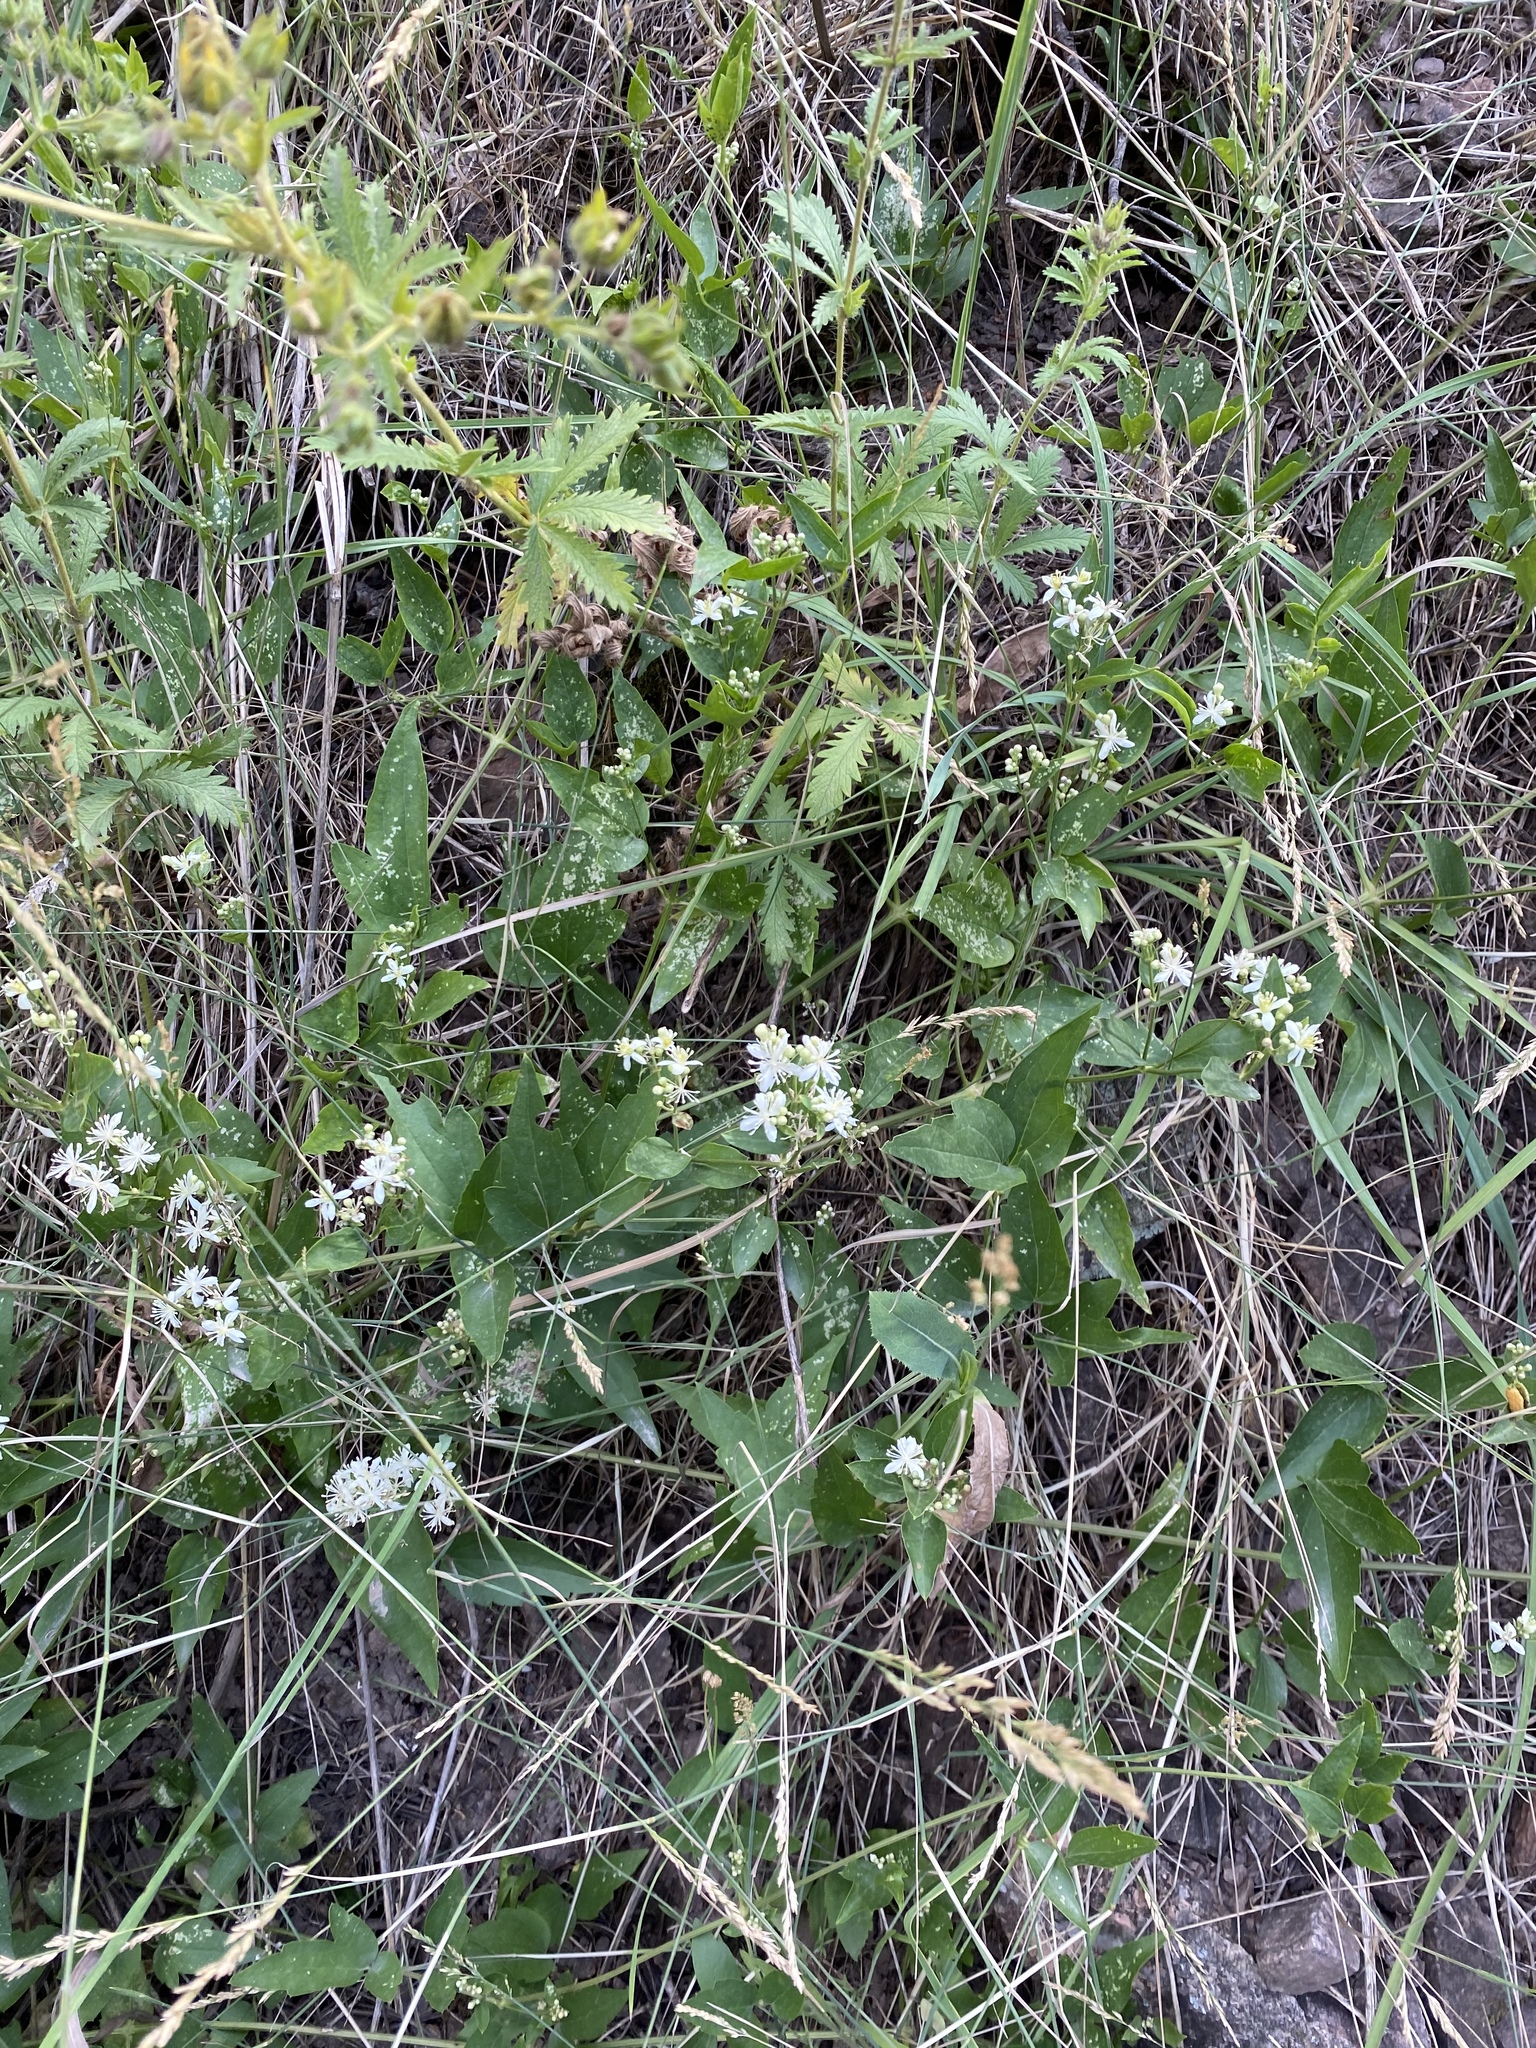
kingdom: Plantae
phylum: Tracheophyta
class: Magnoliopsida
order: Ranunculales
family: Ranunculaceae
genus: Clematis
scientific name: Clematis ligusticifolia
